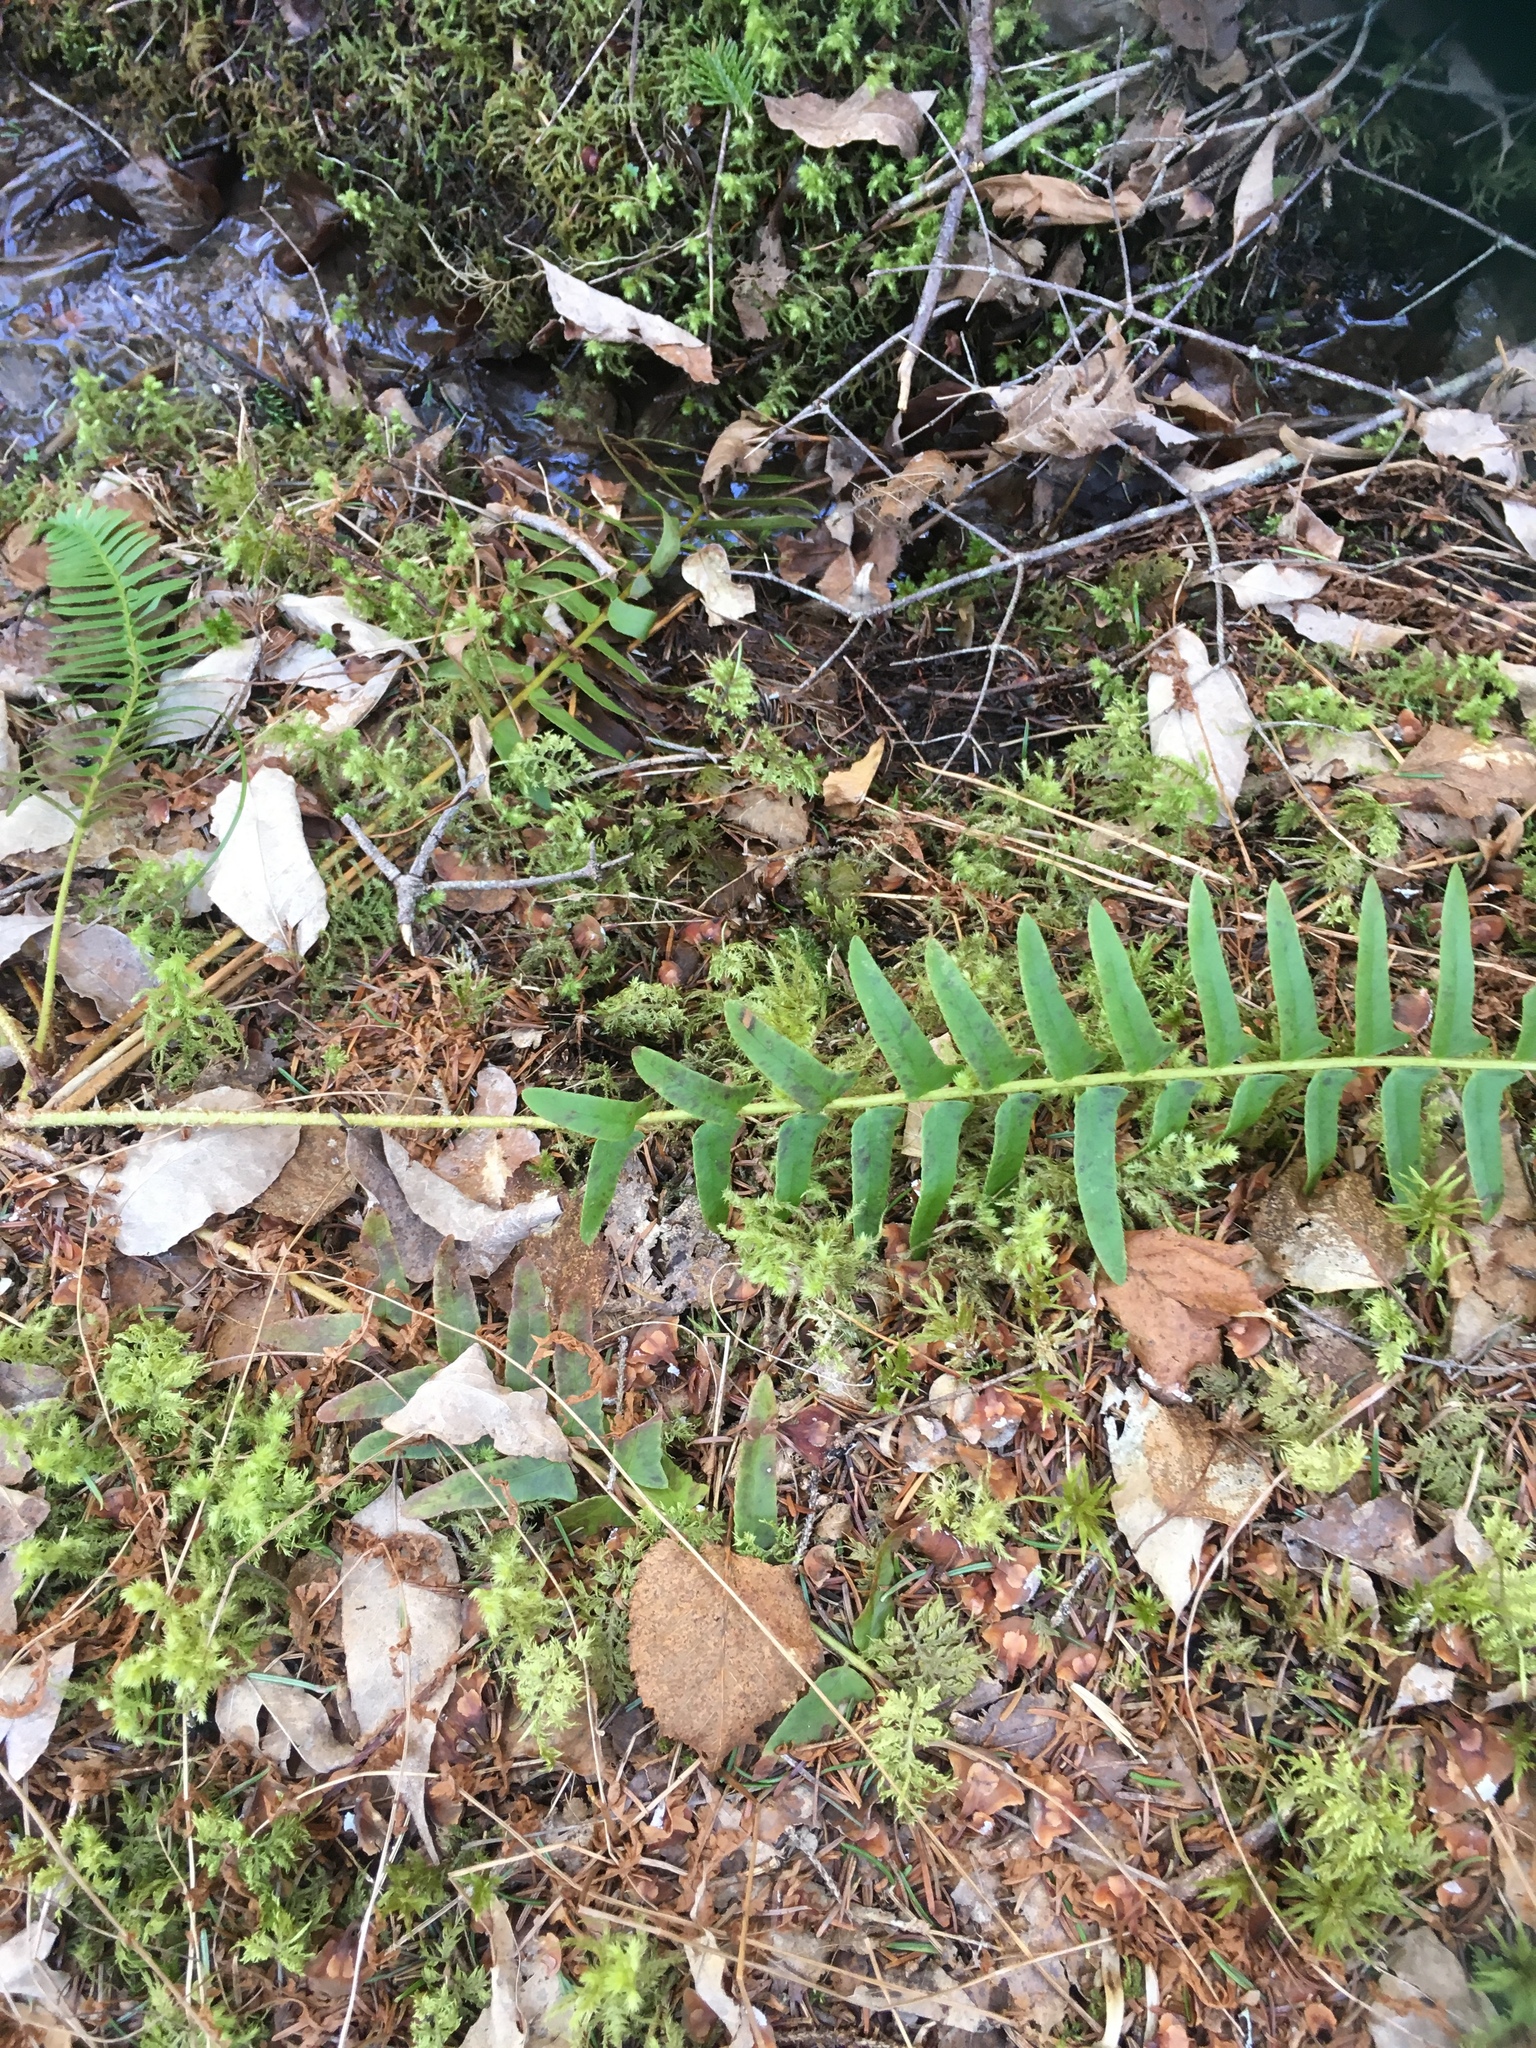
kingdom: Plantae
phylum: Tracheophyta
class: Polypodiopsida
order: Polypodiales
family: Dryopteridaceae
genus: Polystichum
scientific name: Polystichum acrostichoides
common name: Christmas fern
